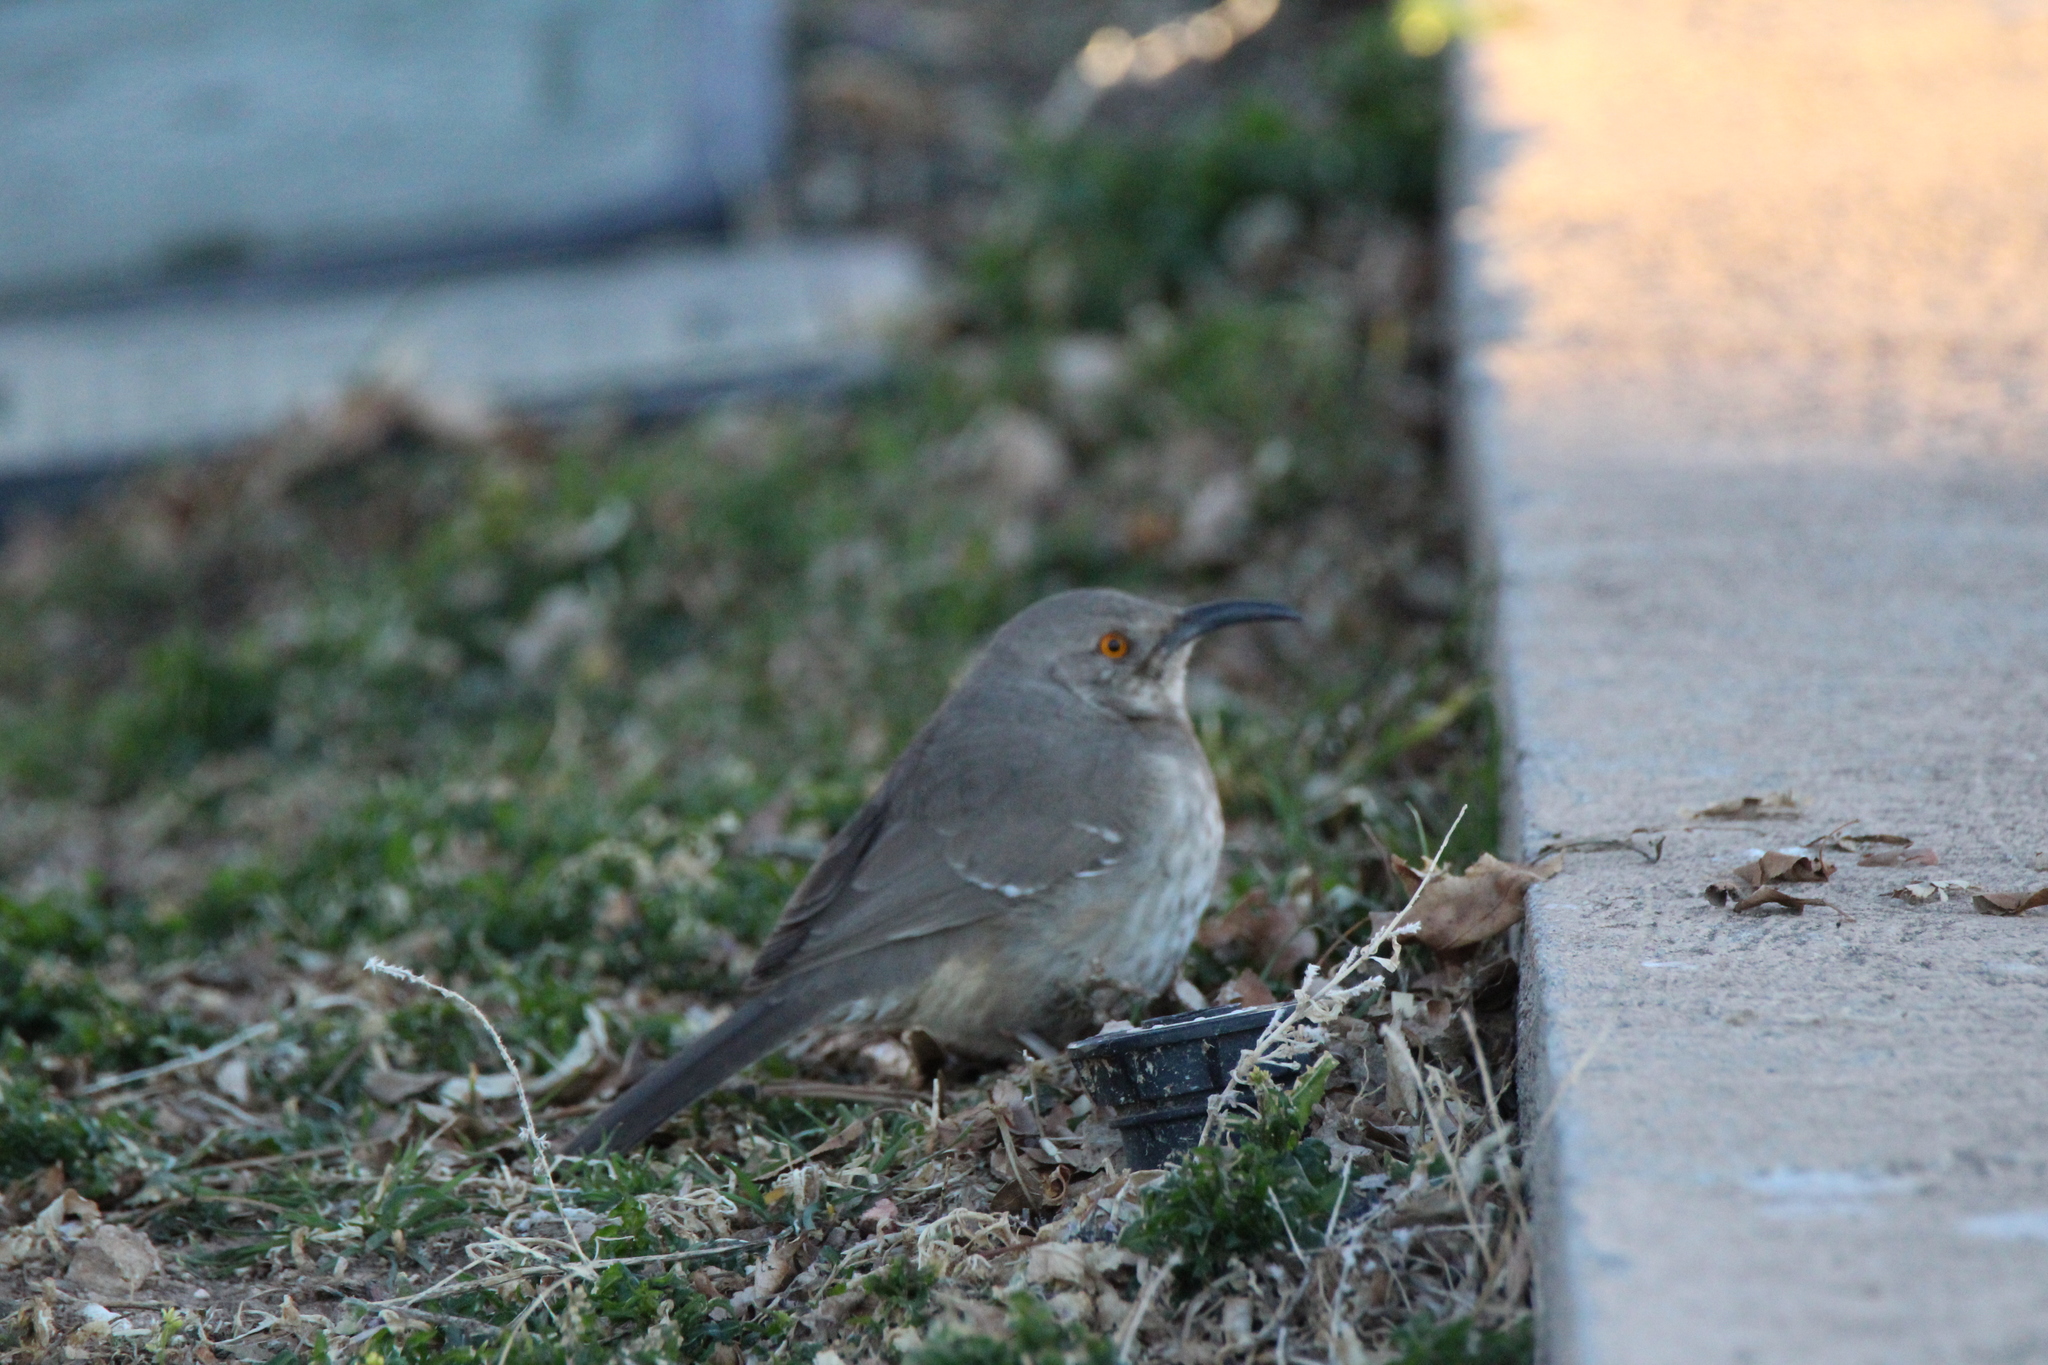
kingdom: Animalia
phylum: Chordata
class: Aves
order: Passeriformes
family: Mimidae
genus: Toxostoma
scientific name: Toxostoma curvirostre
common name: Curve-billed thrasher
